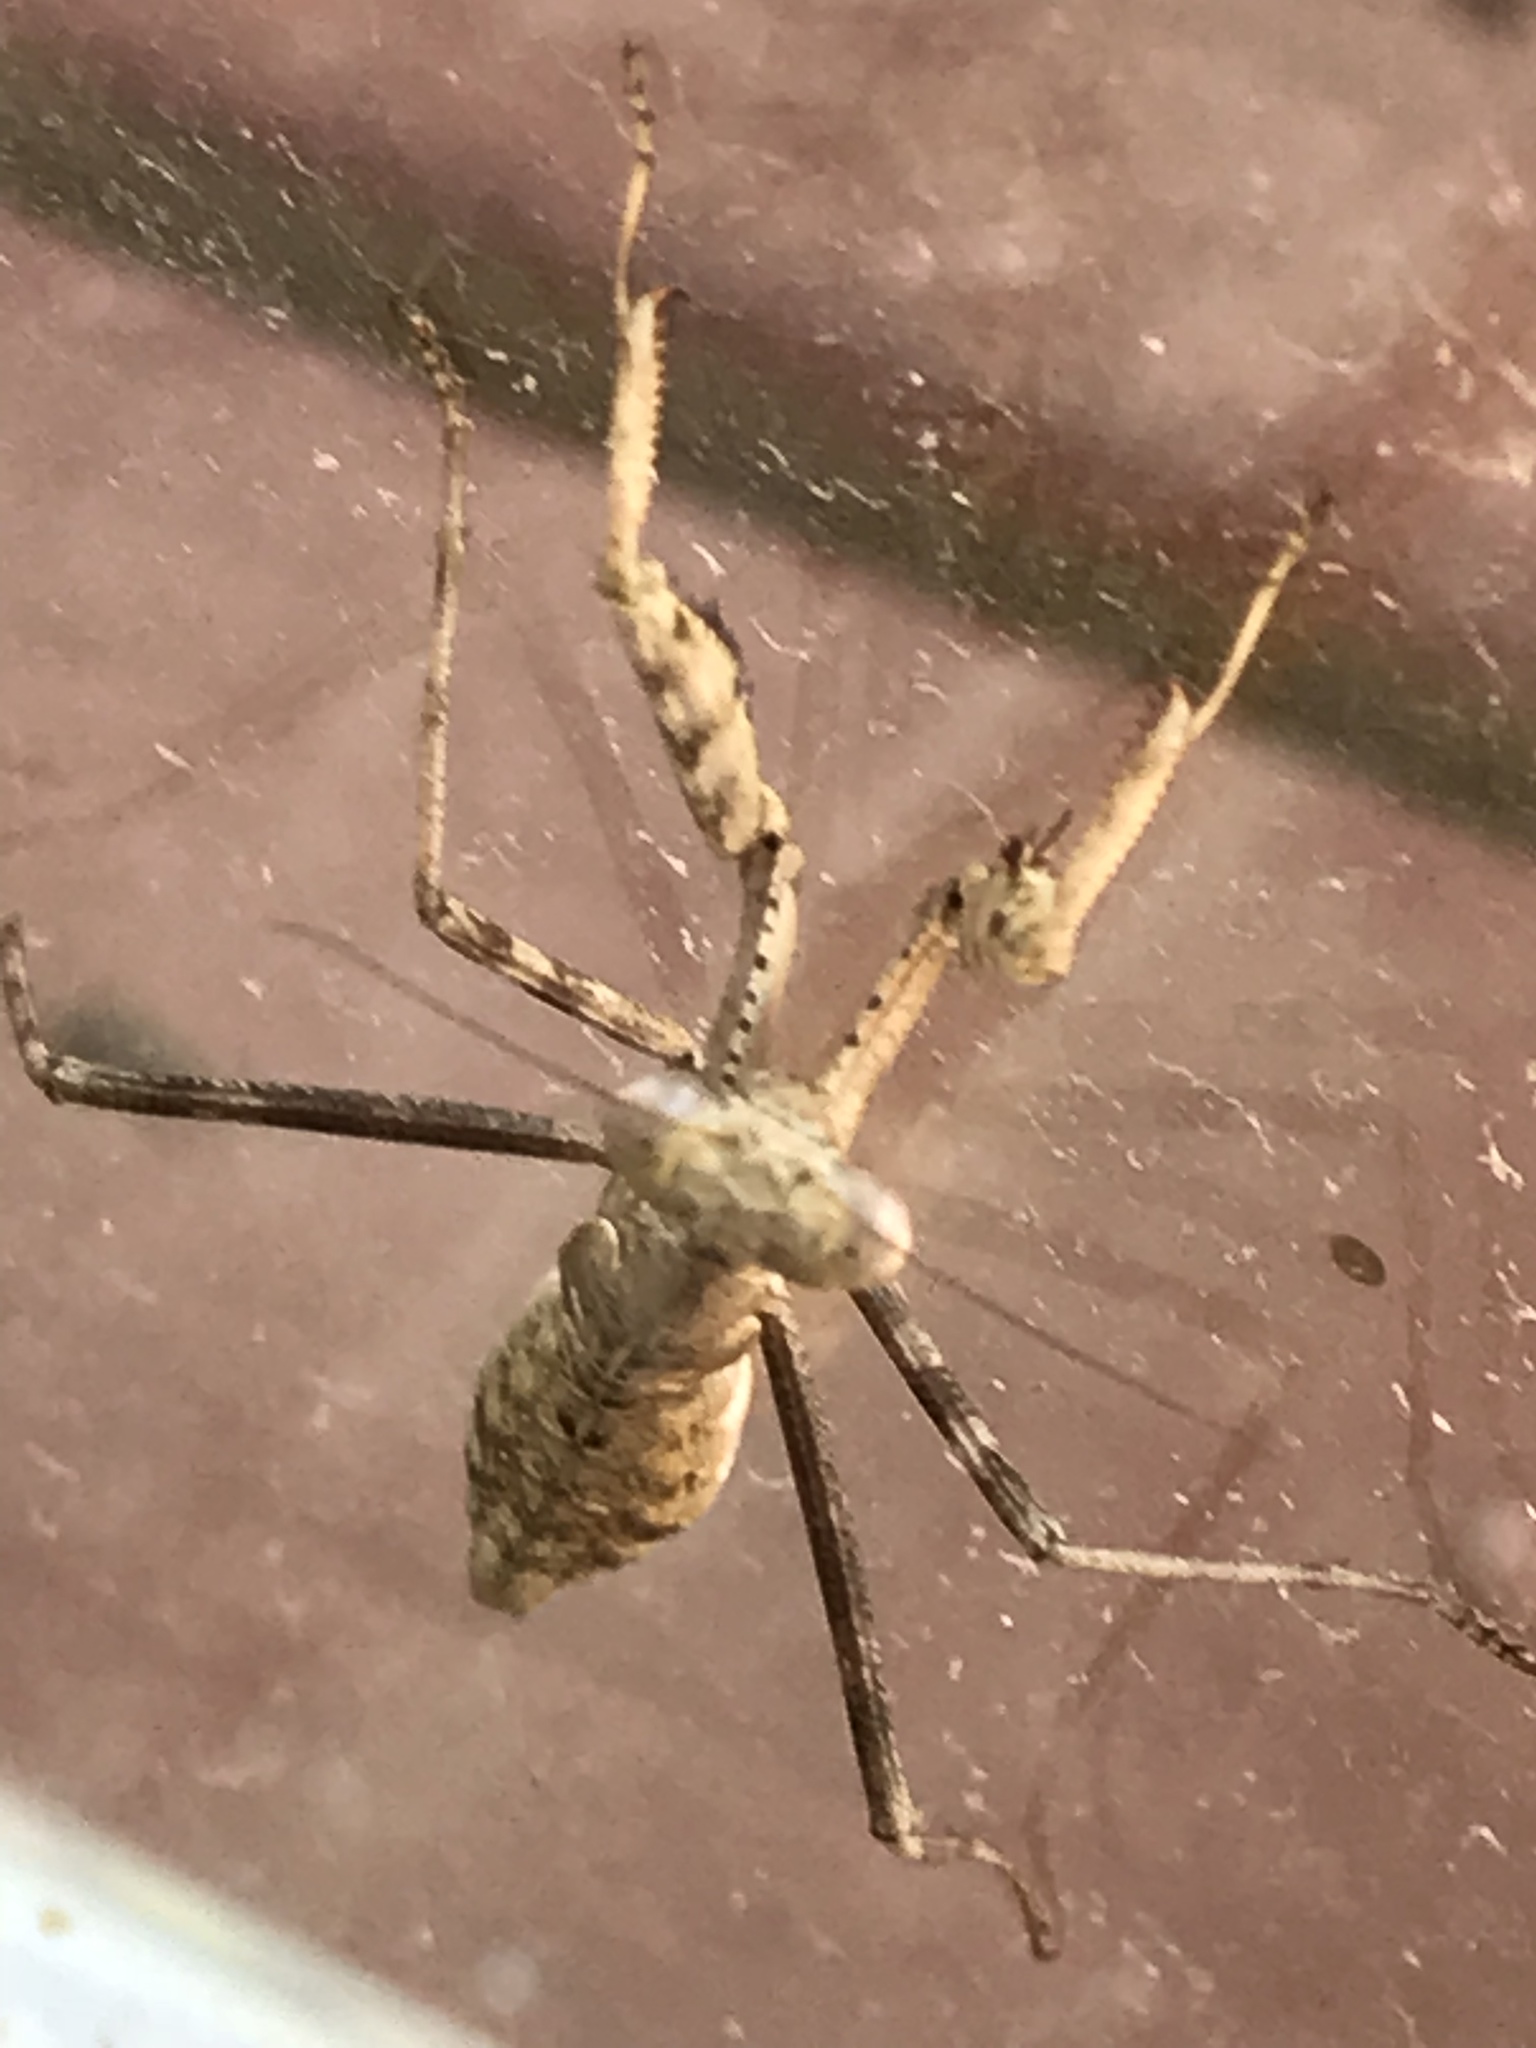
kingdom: Animalia
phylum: Arthropoda
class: Insecta
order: Mantodea
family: Mantidae
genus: Stagmomantis
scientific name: Stagmomantis carolina
